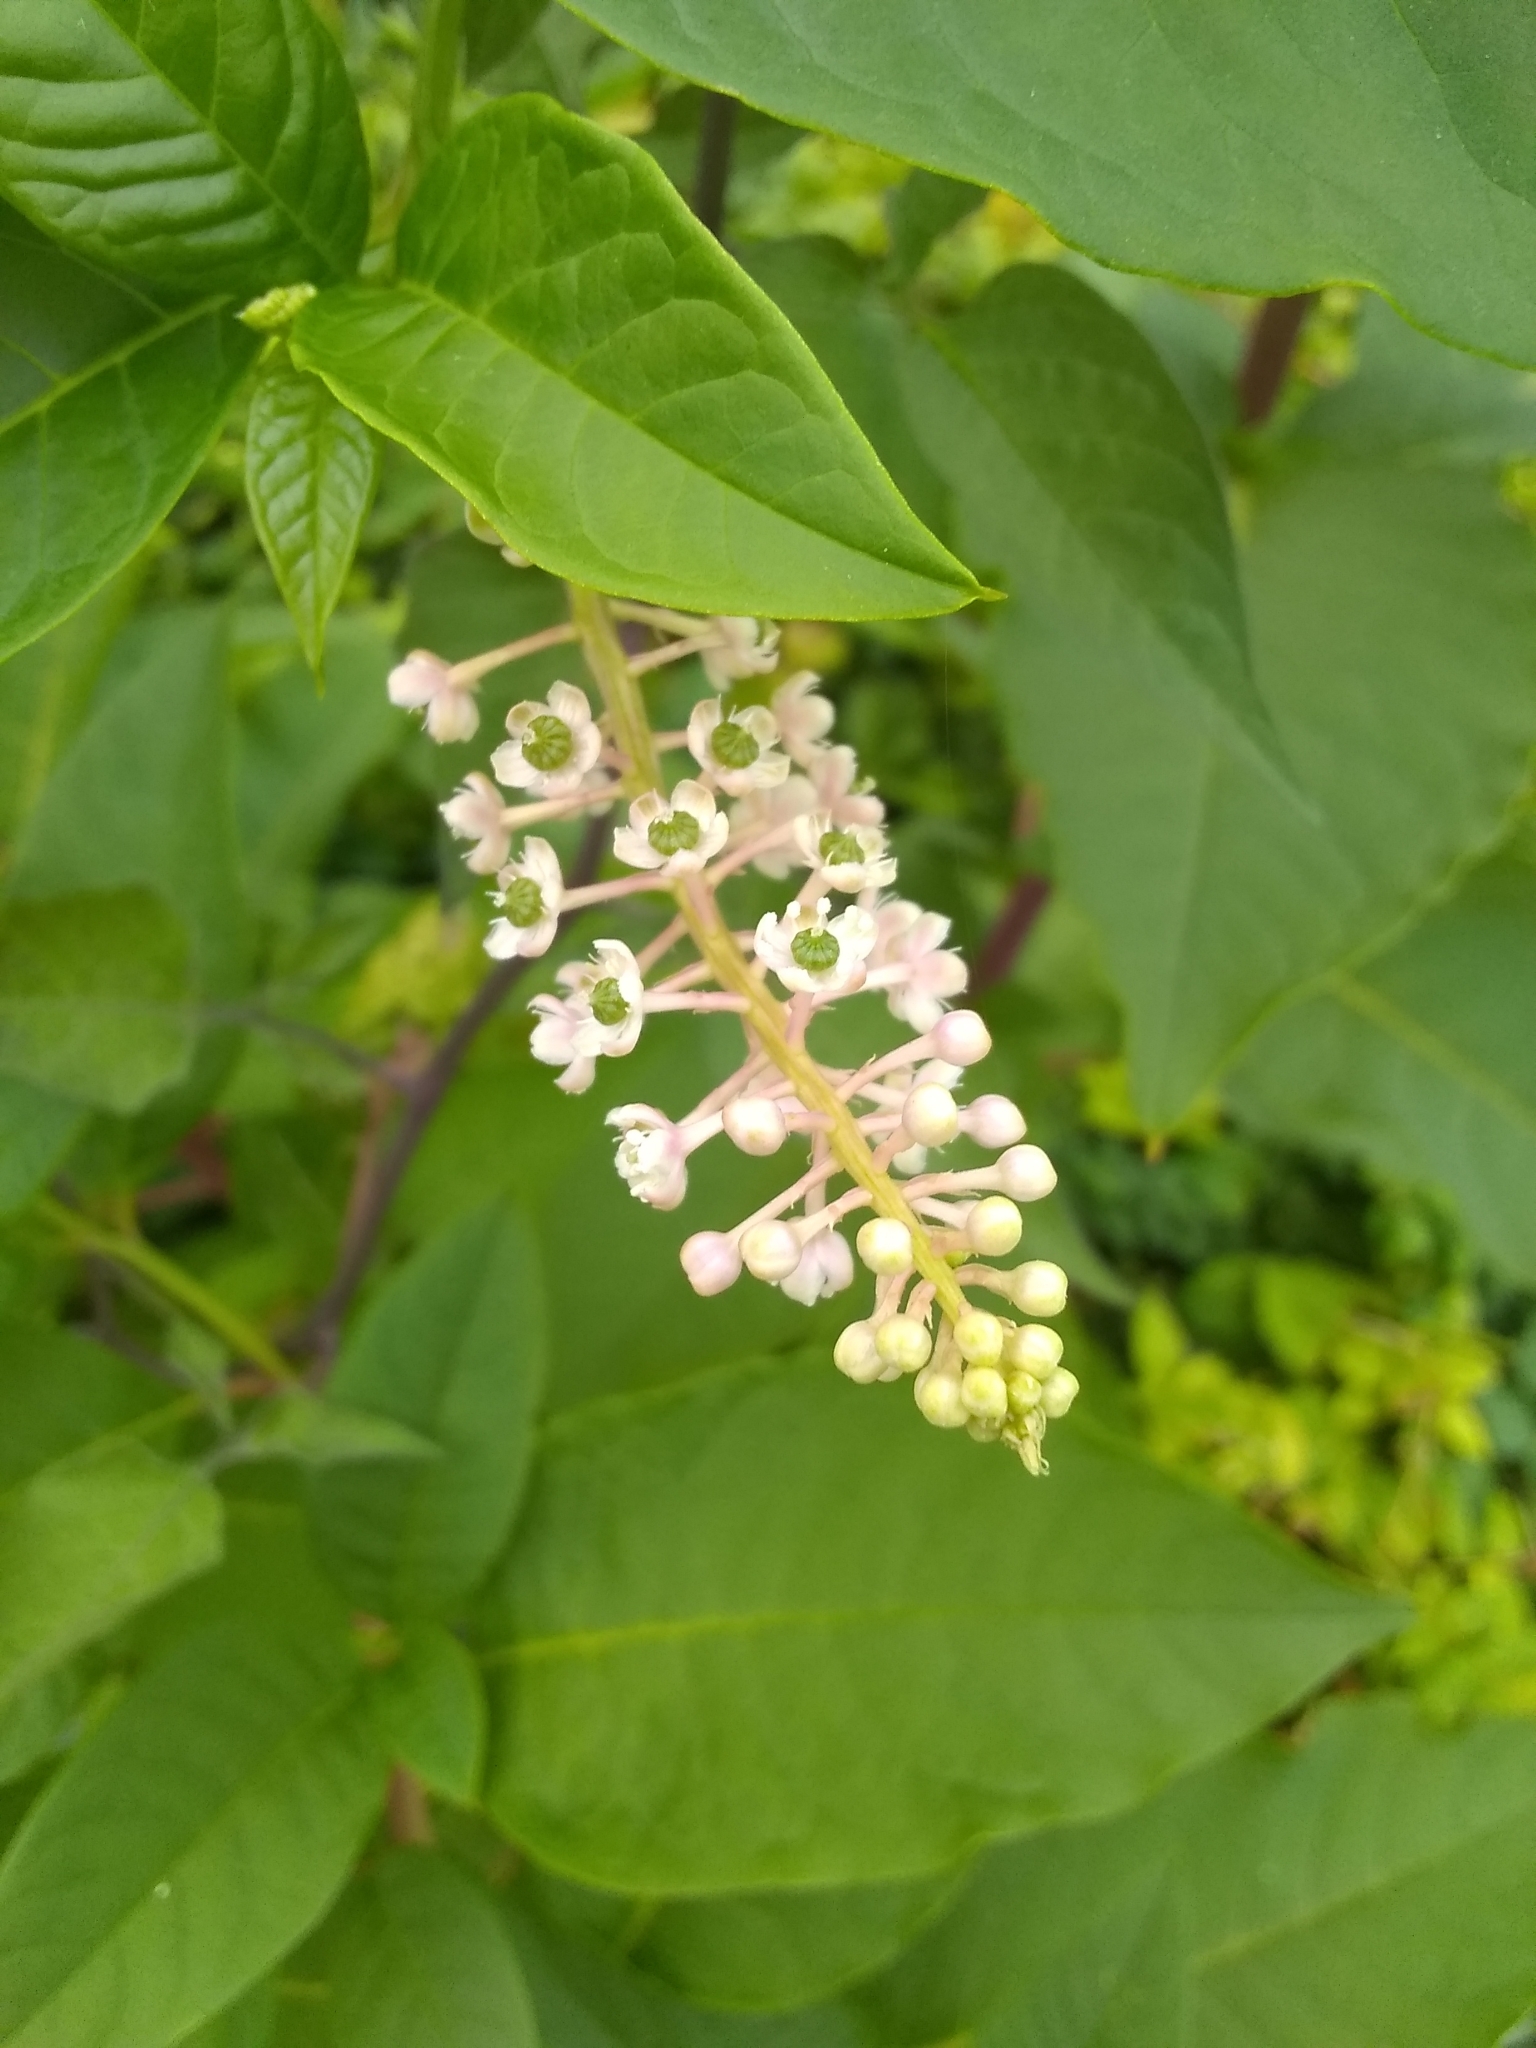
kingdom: Plantae
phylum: Tracheophyta
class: Magnoliopsida
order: Caryophyllales
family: Phytolaccaceae
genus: Phytolacca
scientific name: Phytolacca americana
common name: American pokeweed
